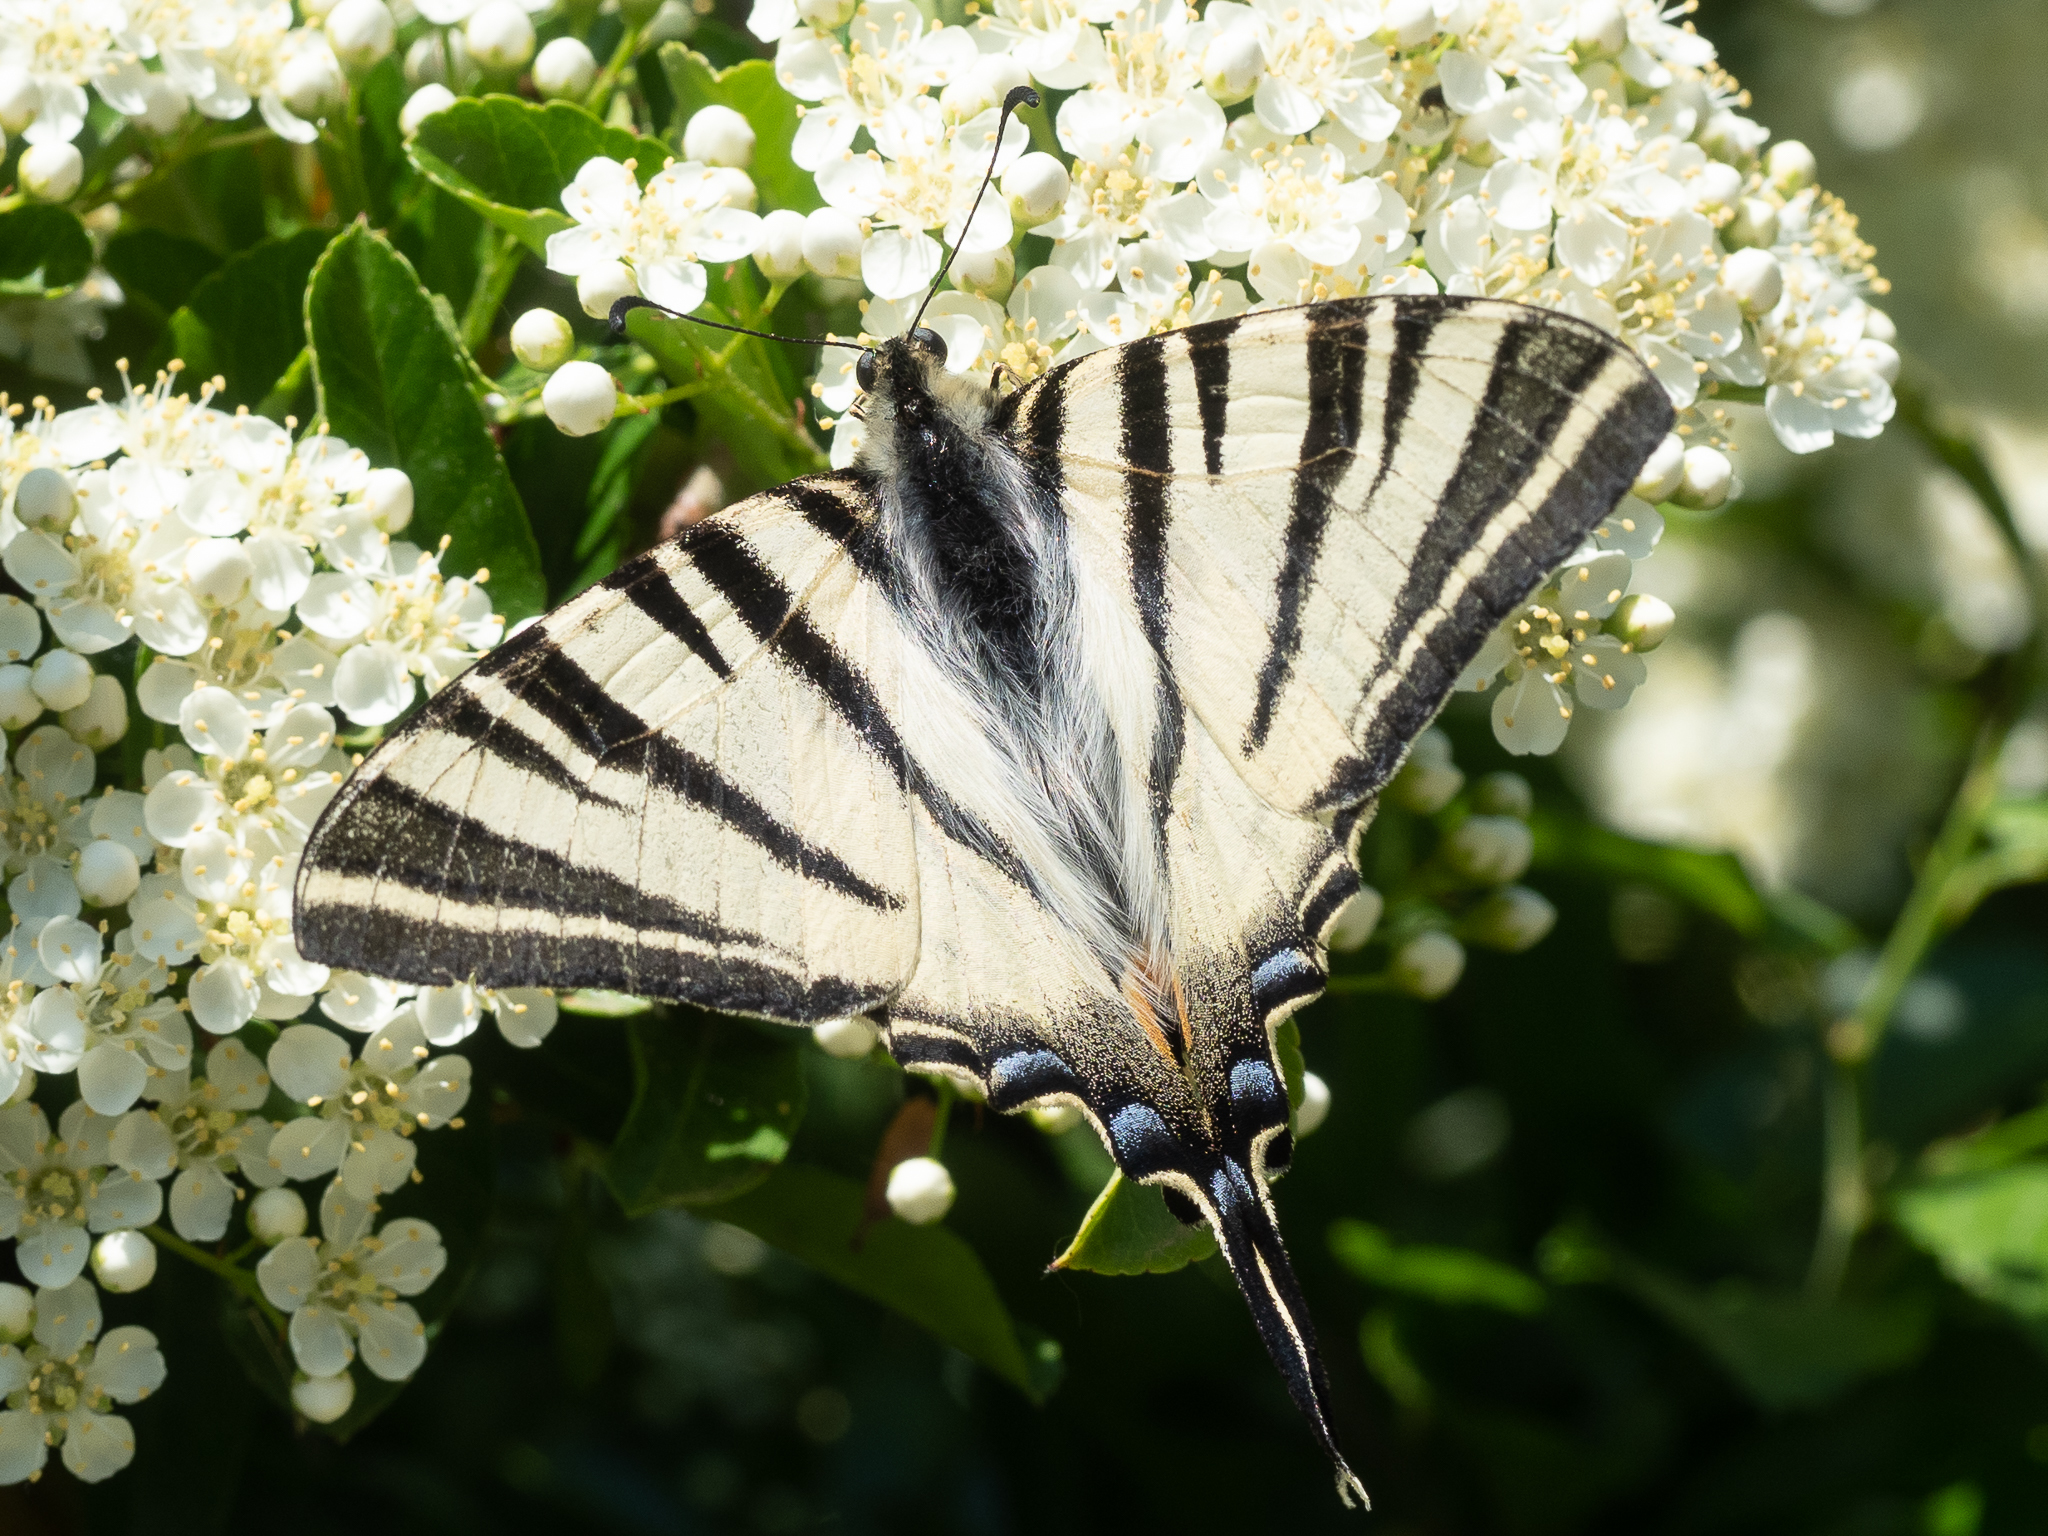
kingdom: Animalia
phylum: Arthropoda
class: Insecta
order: Lepidoptera
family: Papilionidae
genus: Iphiclides
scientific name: Iphiclides podalirius
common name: Scarce swallowtail
